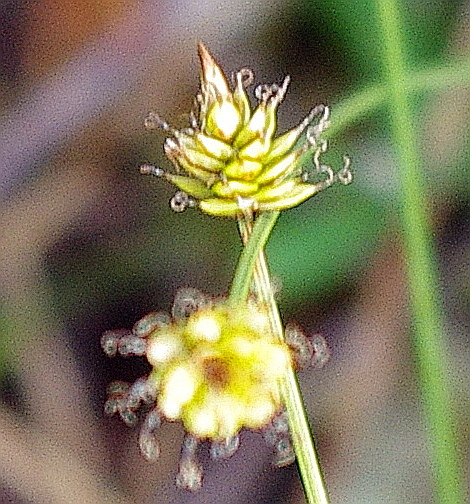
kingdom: Plantae
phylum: Tracheophyta
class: Liliopsida
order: Poales
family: Cyperaceae
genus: Carex
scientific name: Carex capitata
